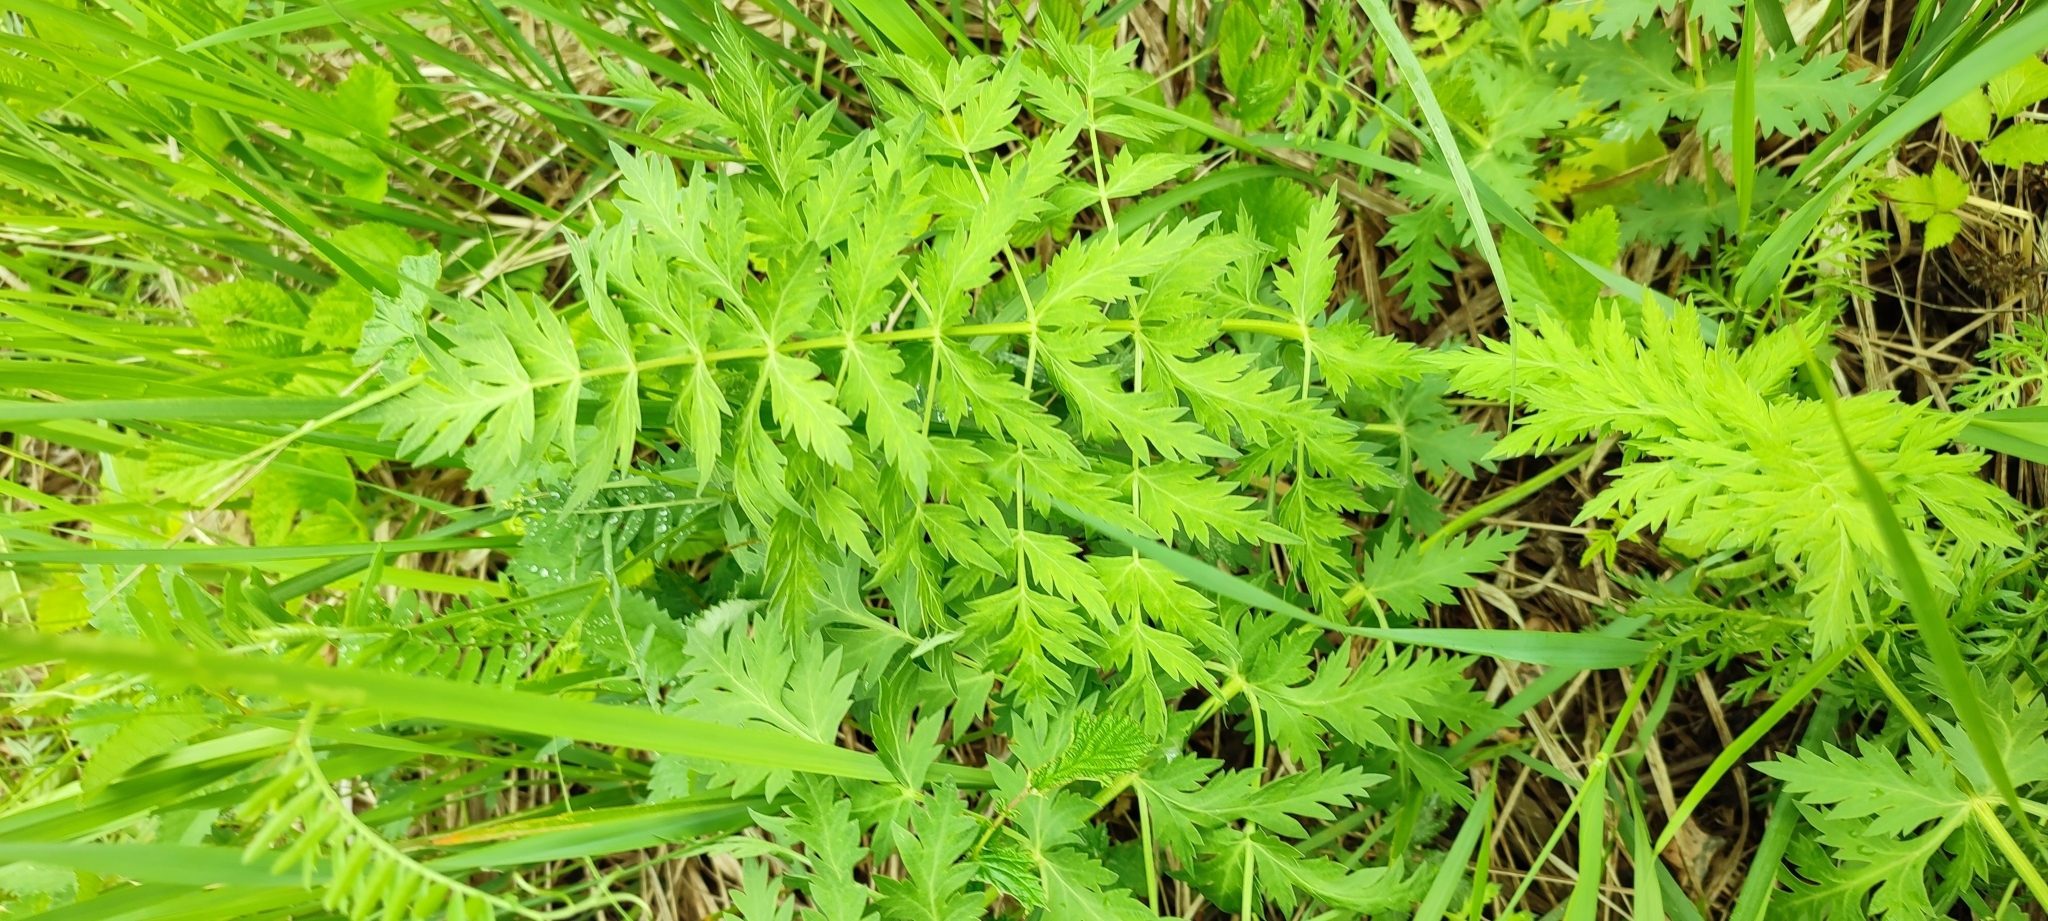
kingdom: Plantae
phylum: Tracheophyta
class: Magnoliopsida
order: Apiales
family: Apiaceae
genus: Seseli
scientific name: Seseli libanotis
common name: Mooncarrot
